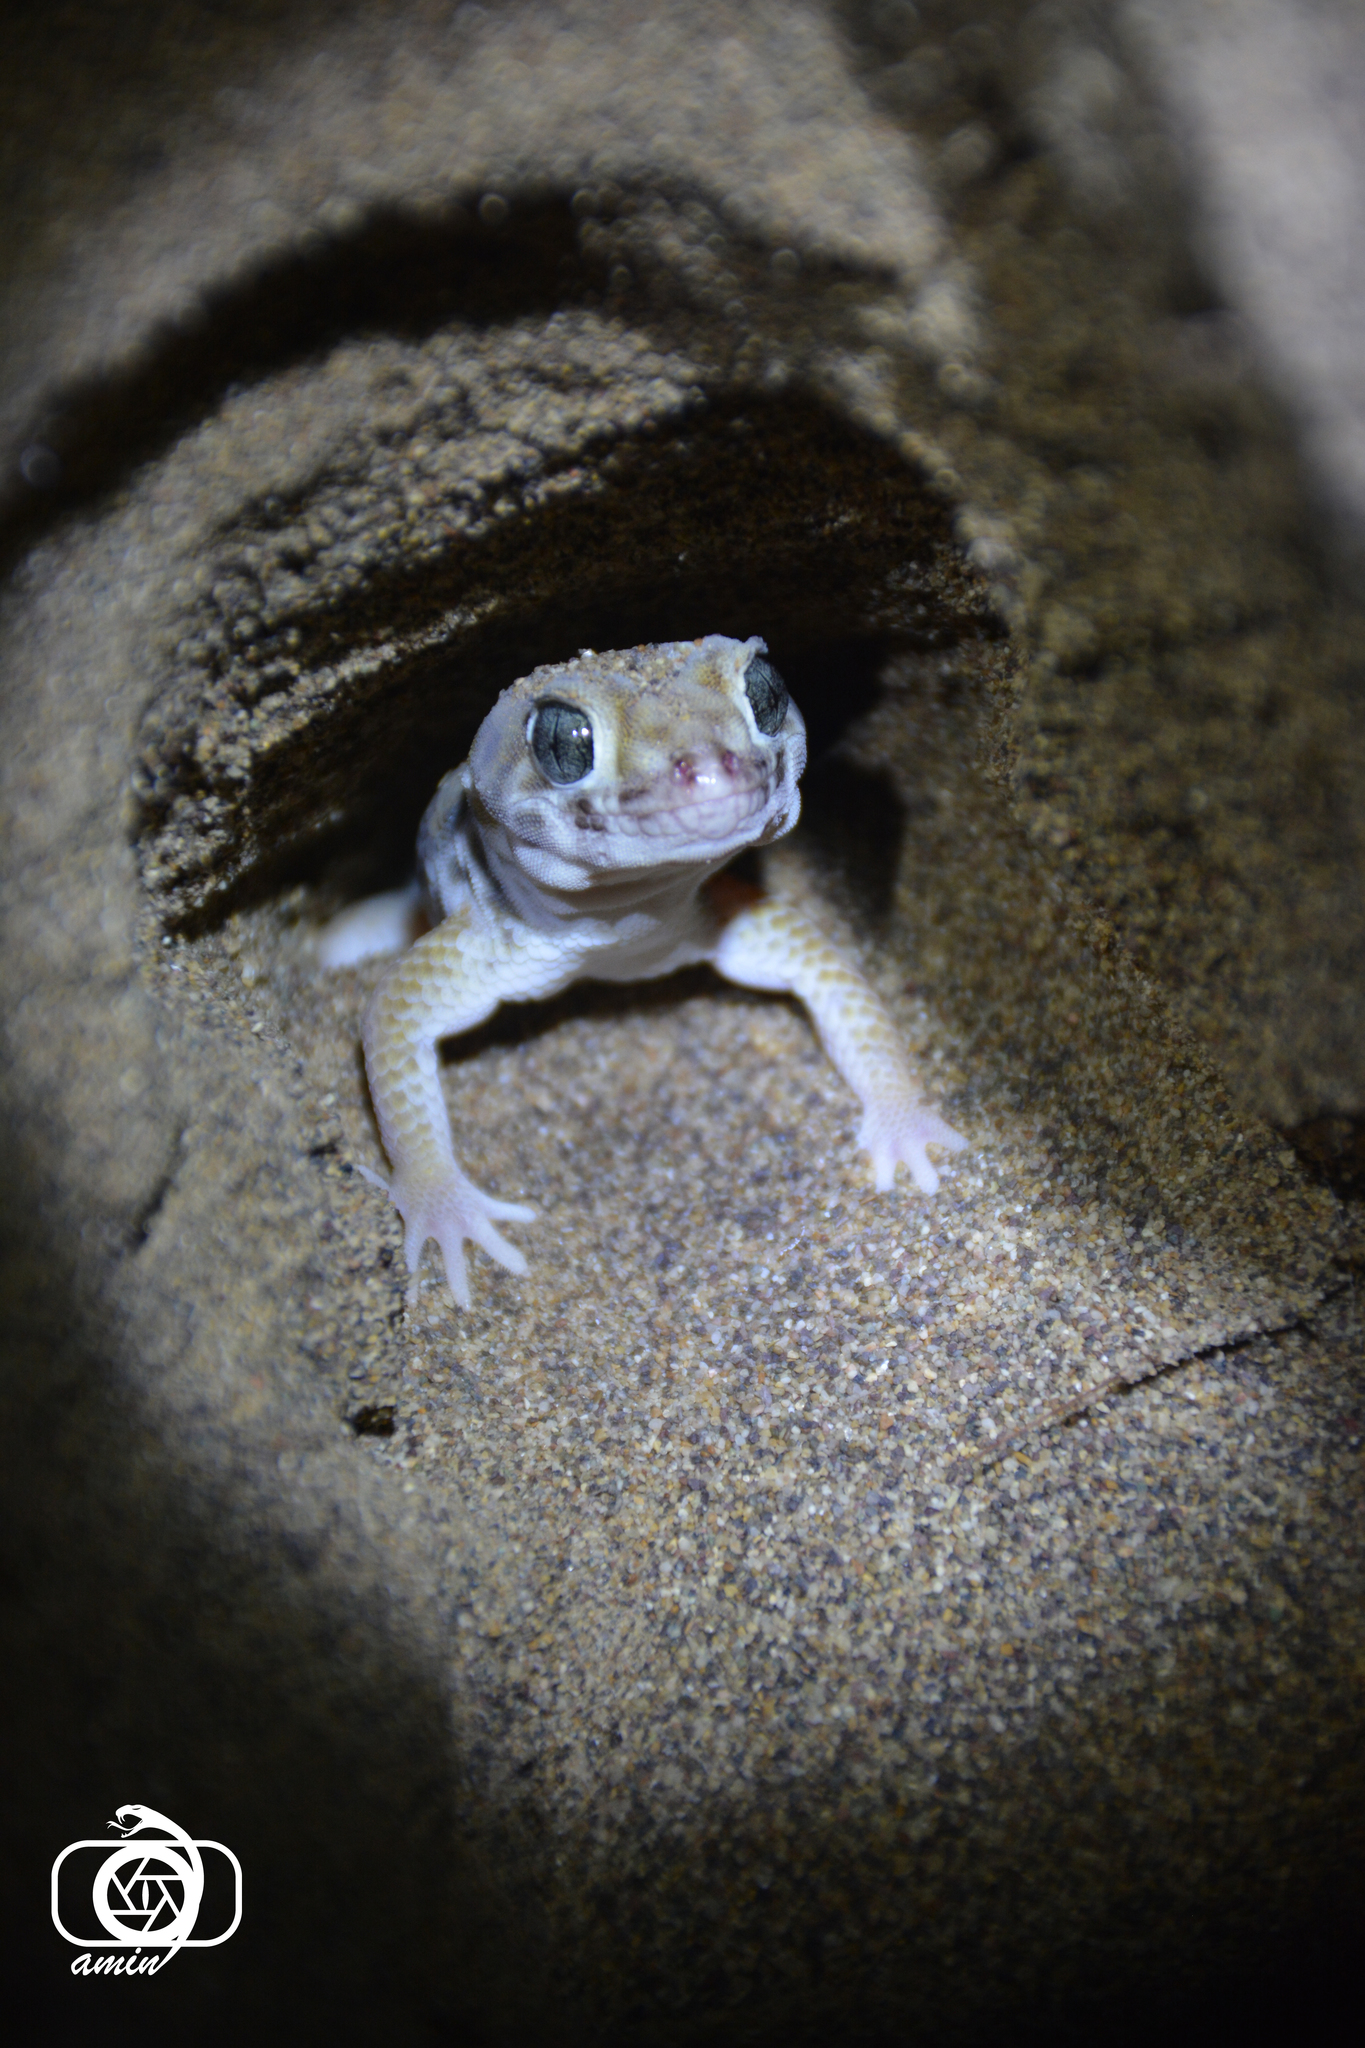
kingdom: Animalia
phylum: Chordata
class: Squamata
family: Sphaerodactylidae
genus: Teratoscincus
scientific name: Teratoscincus keyserlingii
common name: Frog-eyed gecko
